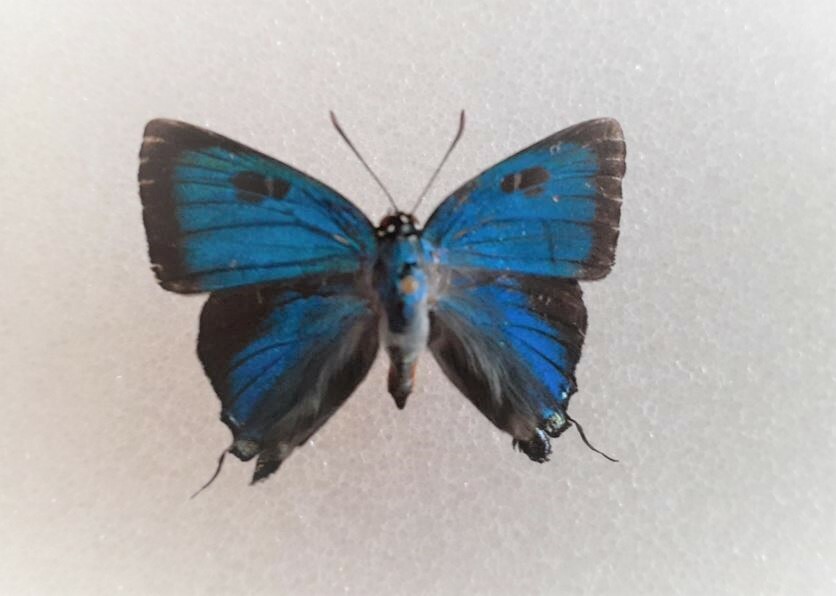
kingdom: Animalia
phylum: Arthropoda
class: Insecta
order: Lepidoptera
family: Lycaenidae
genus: Atlides
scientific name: Atlides halesus
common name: Great purple hairstreak
